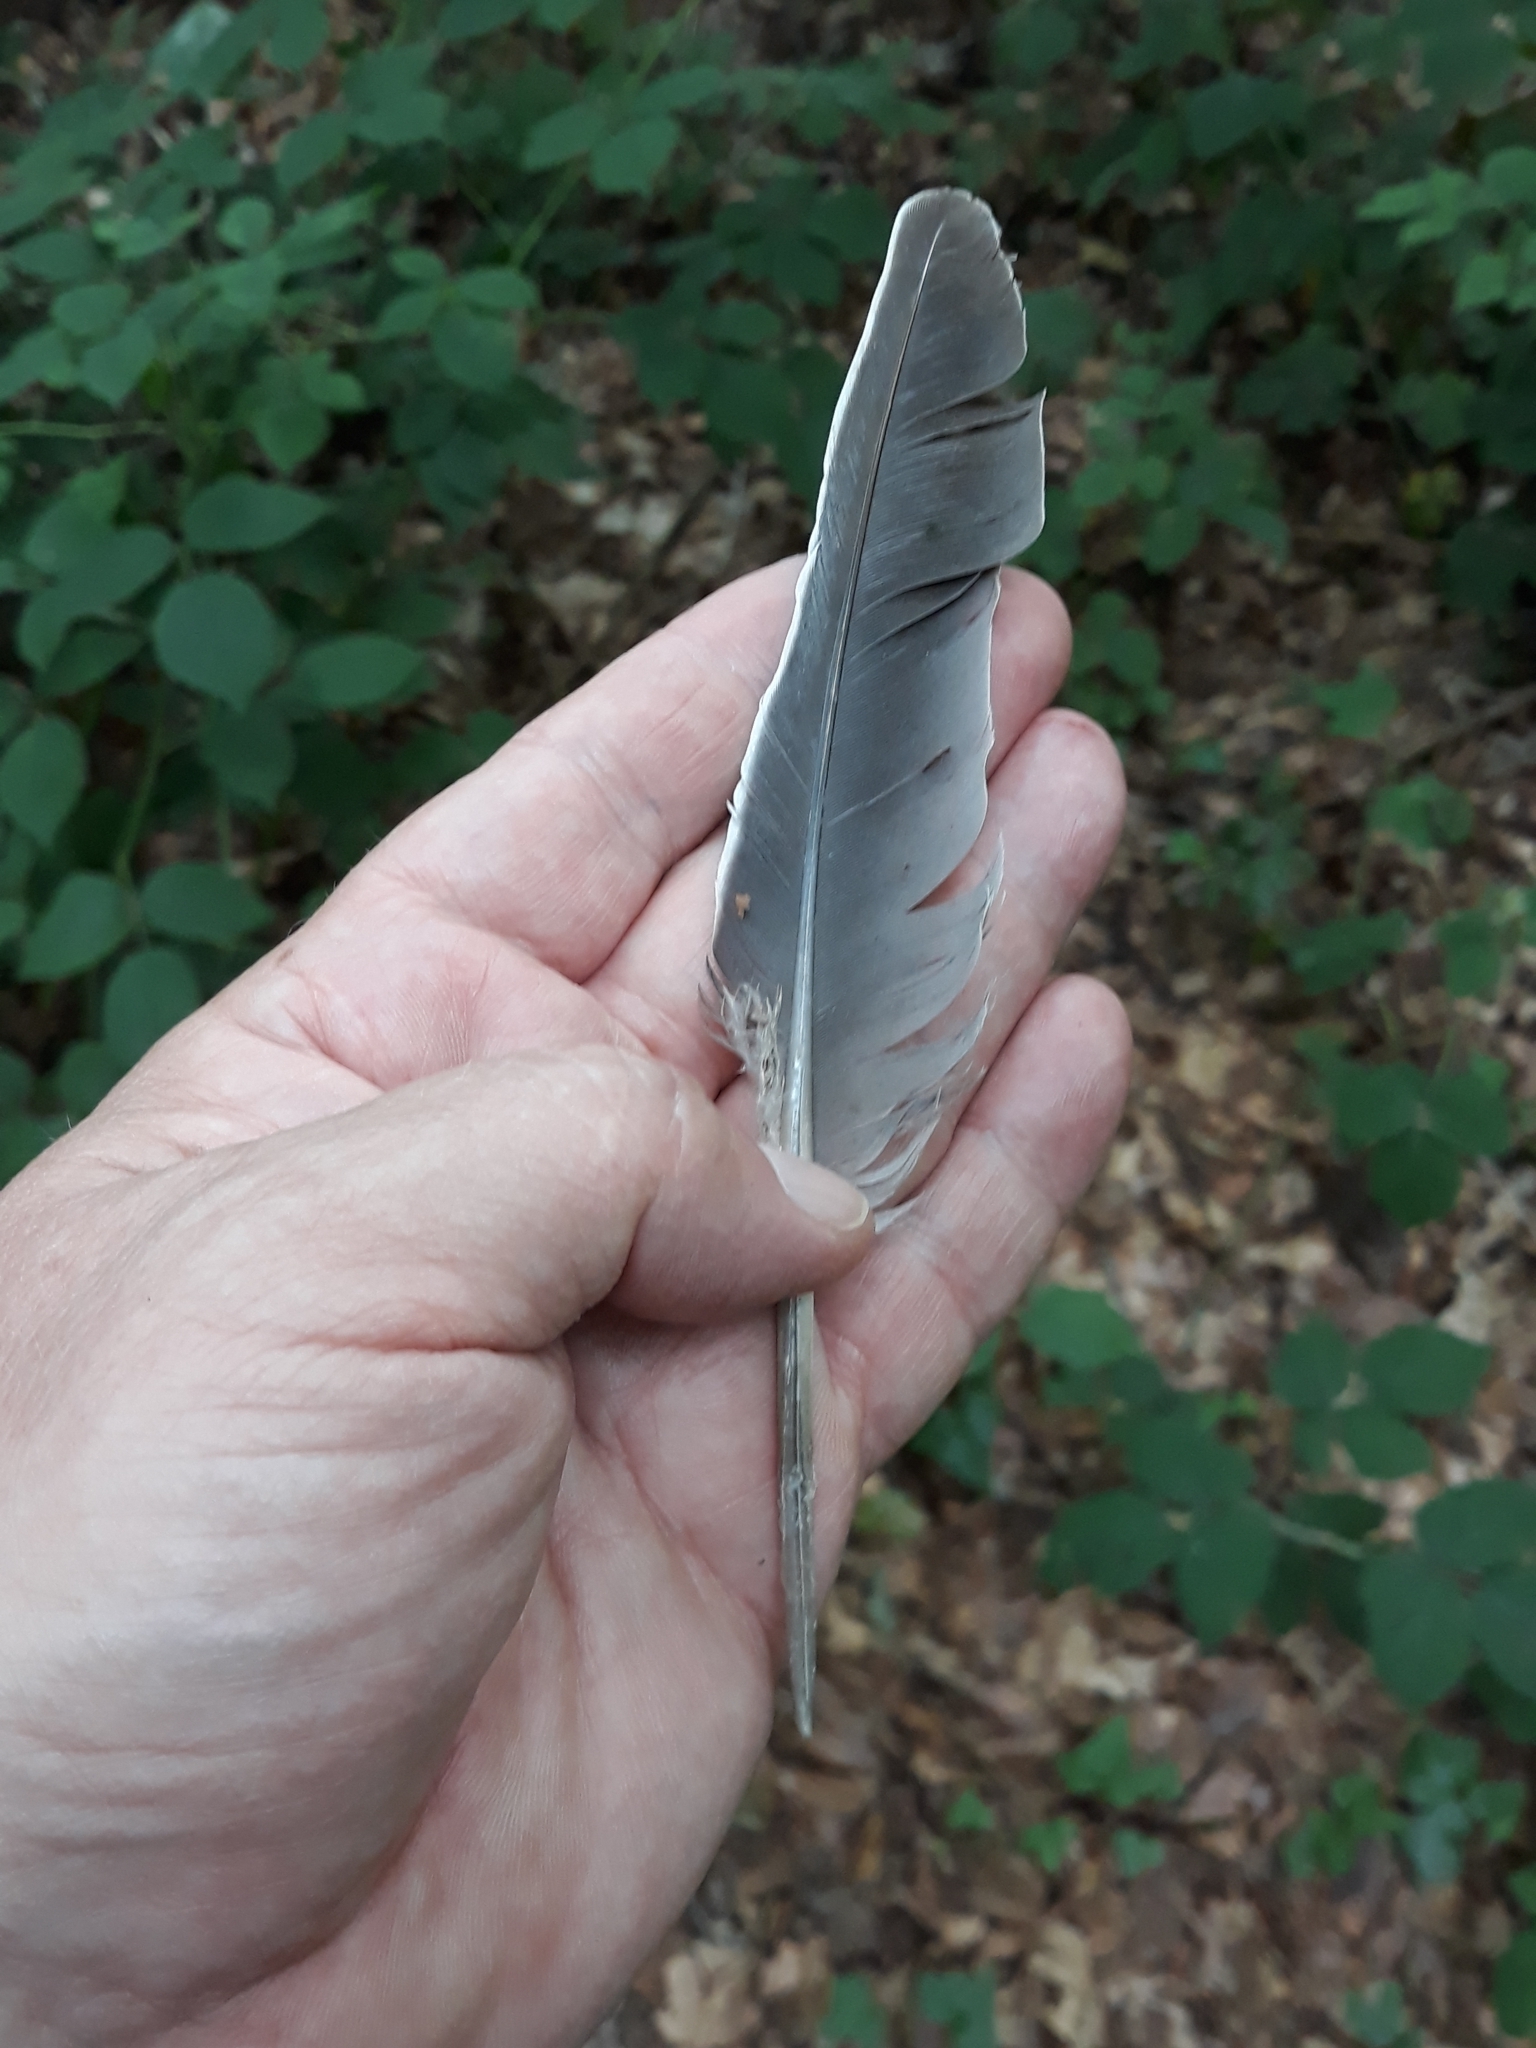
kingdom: Animalia
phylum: Chordata
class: Aves
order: Columbiformes
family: Columbidae
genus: Columba
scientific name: Columba palumbus
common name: Common wood pigeon
